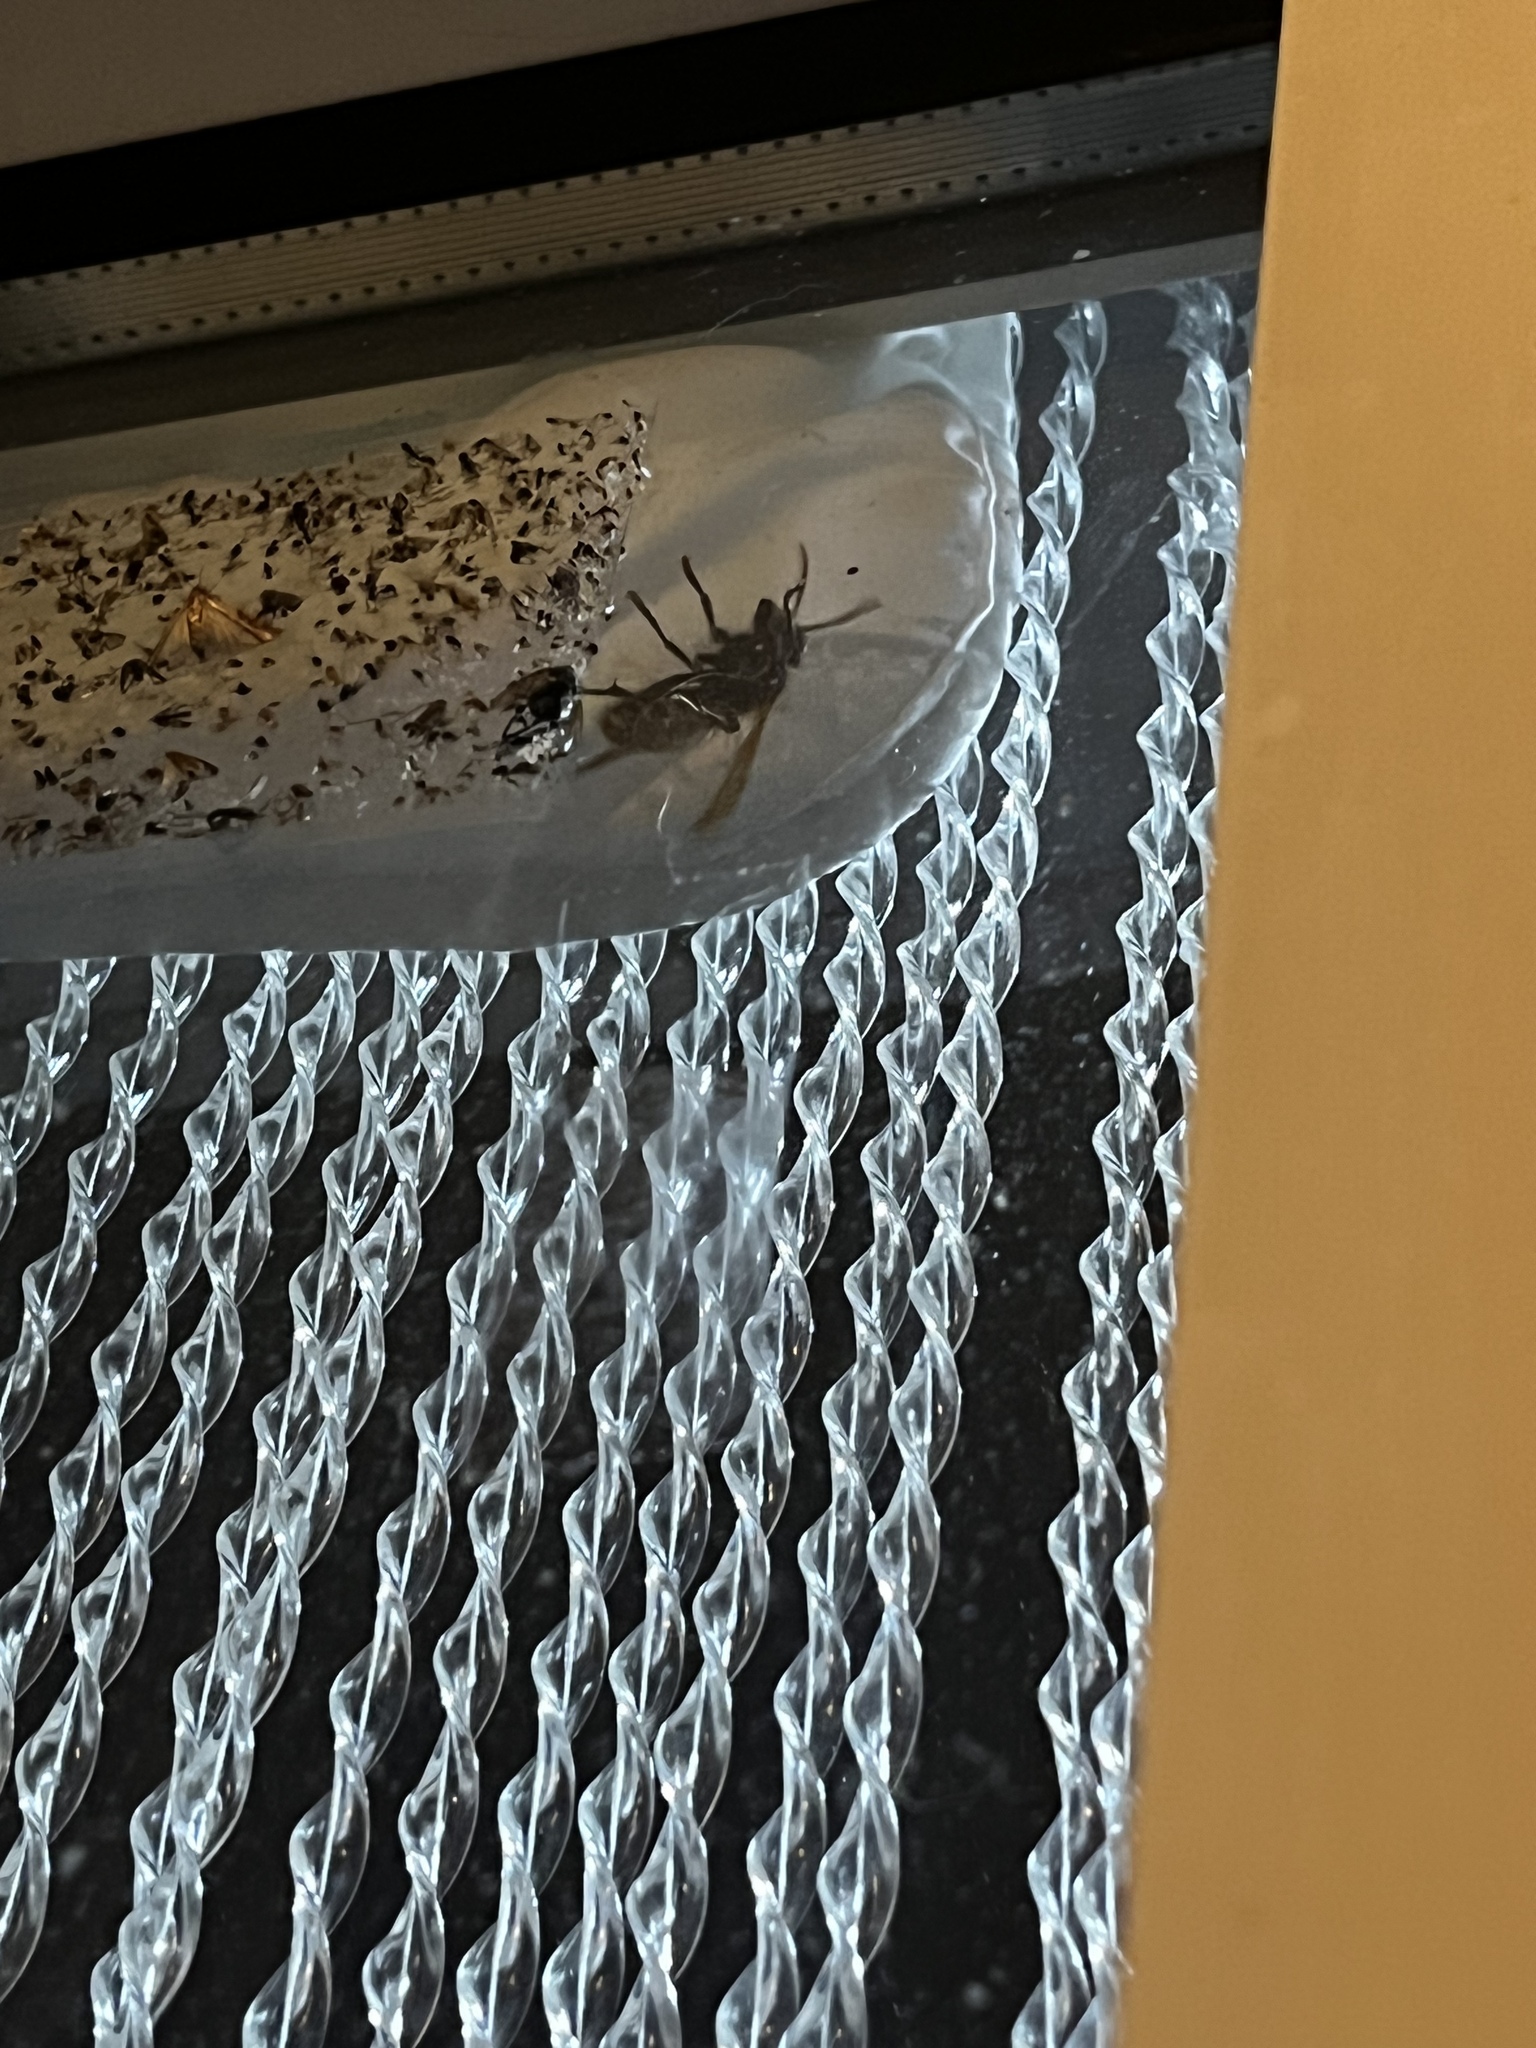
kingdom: Animalia
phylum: Arthropoda
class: Insecta
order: Hymenoptera
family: Vespidae
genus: Vespa
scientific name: Vespa crabro
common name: Hornet
